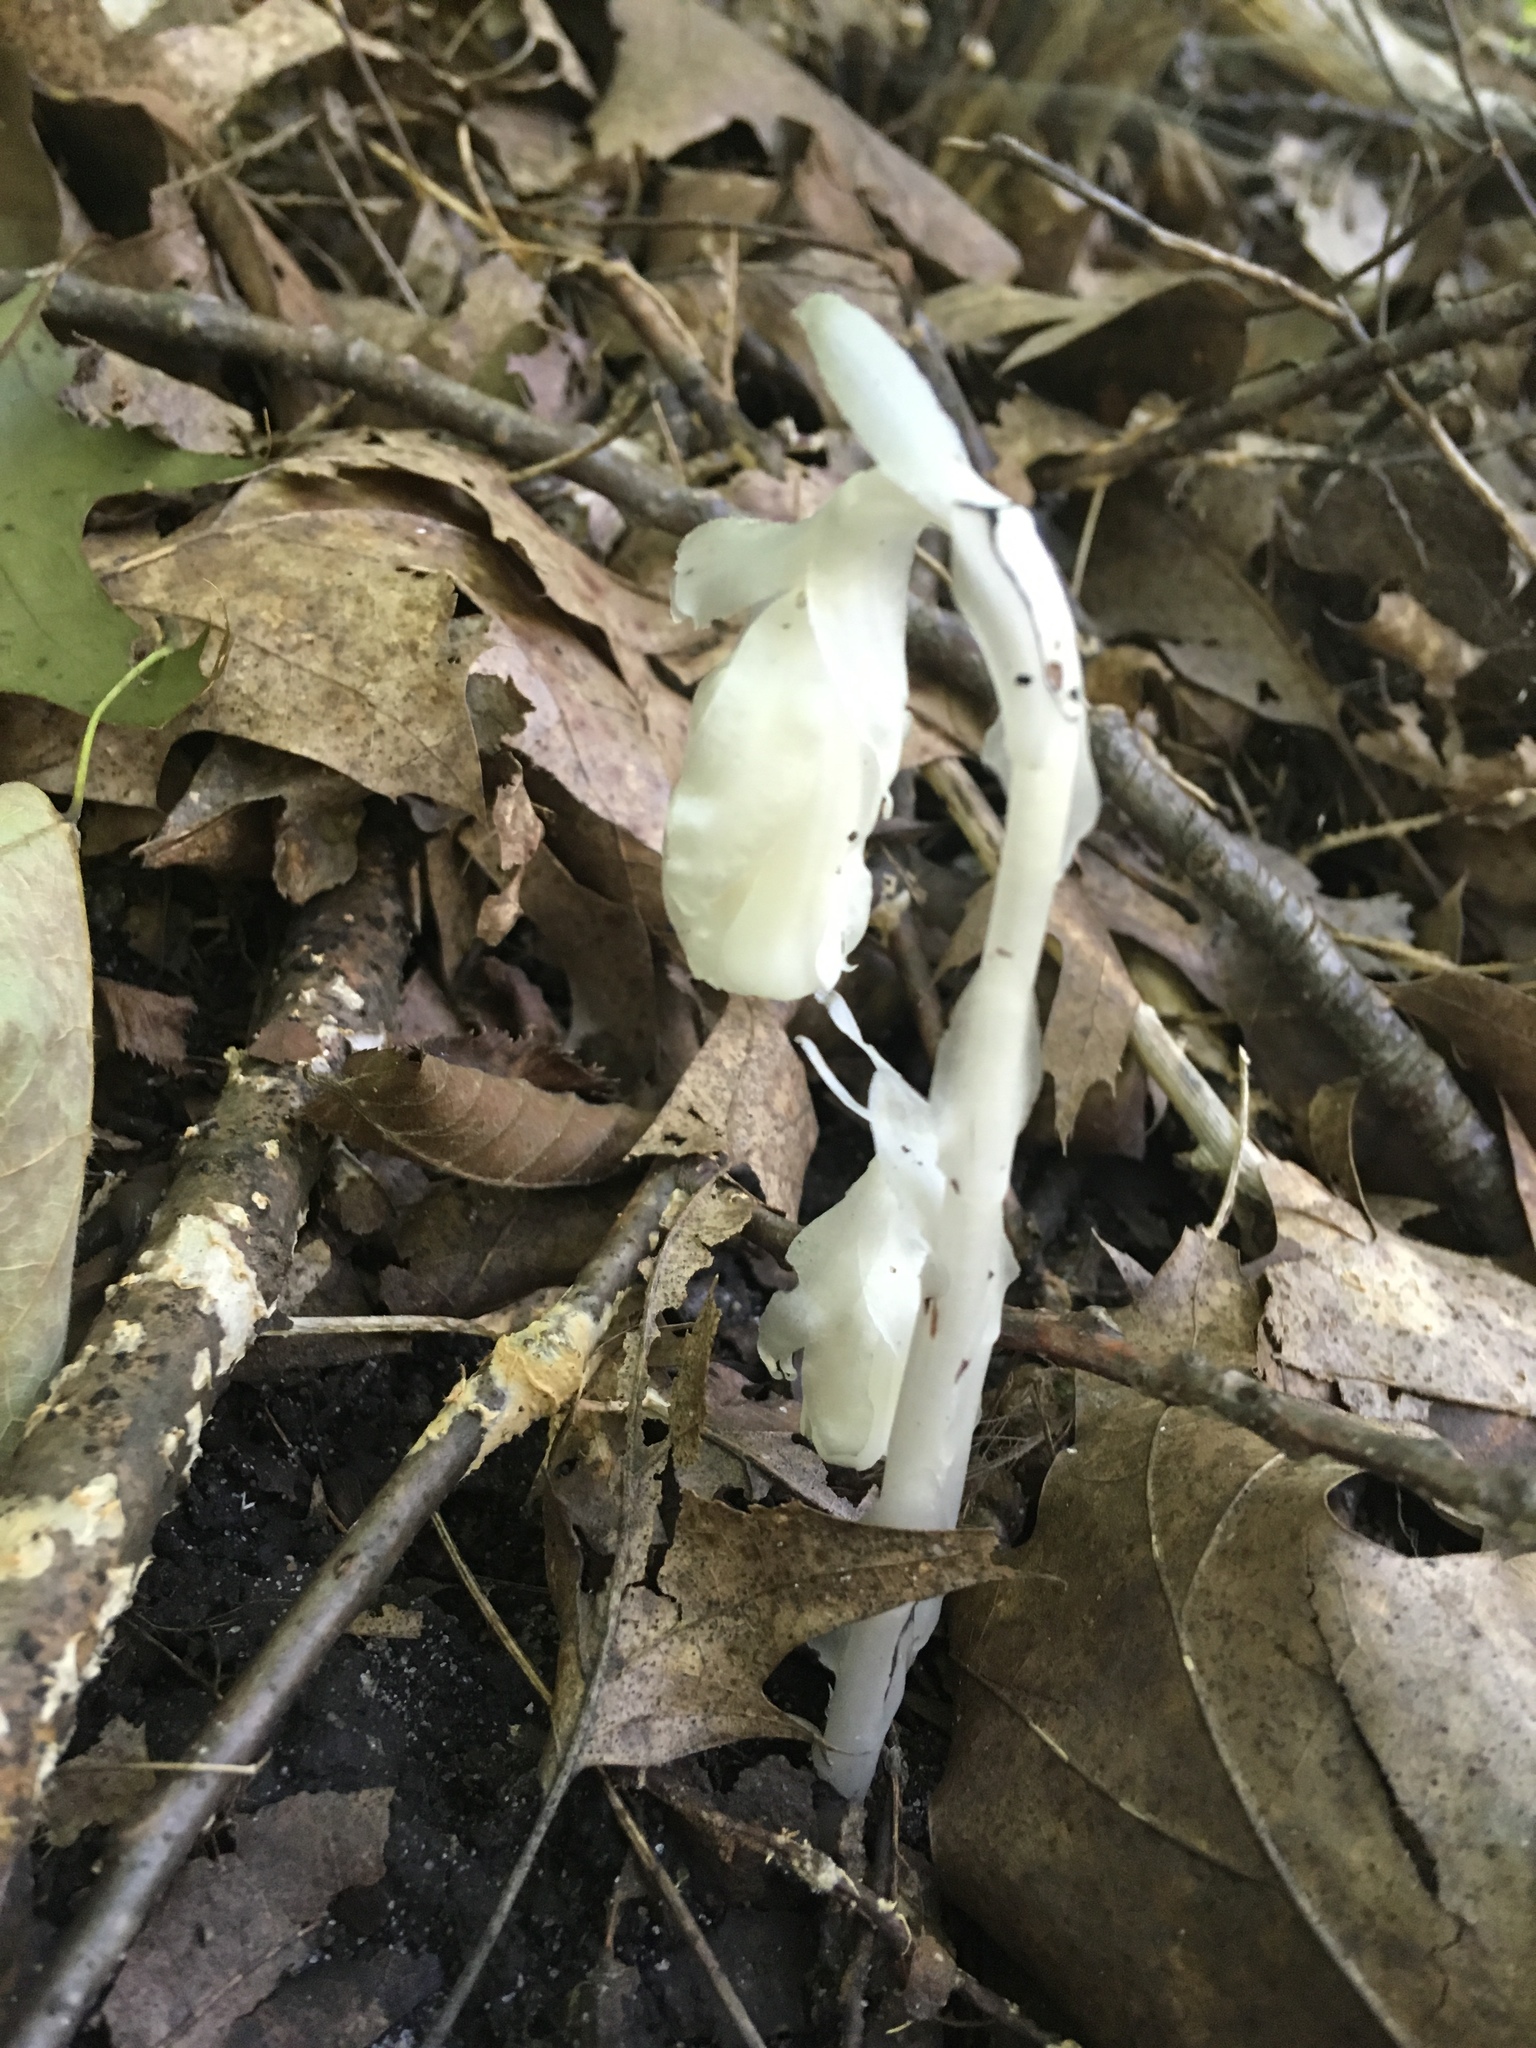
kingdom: Plantae
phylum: Tracheophyta
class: Magnoliopsida
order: Ericales
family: Ericaceae
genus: Monotropa
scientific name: Monotropa uniflora
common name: Convulsion root
